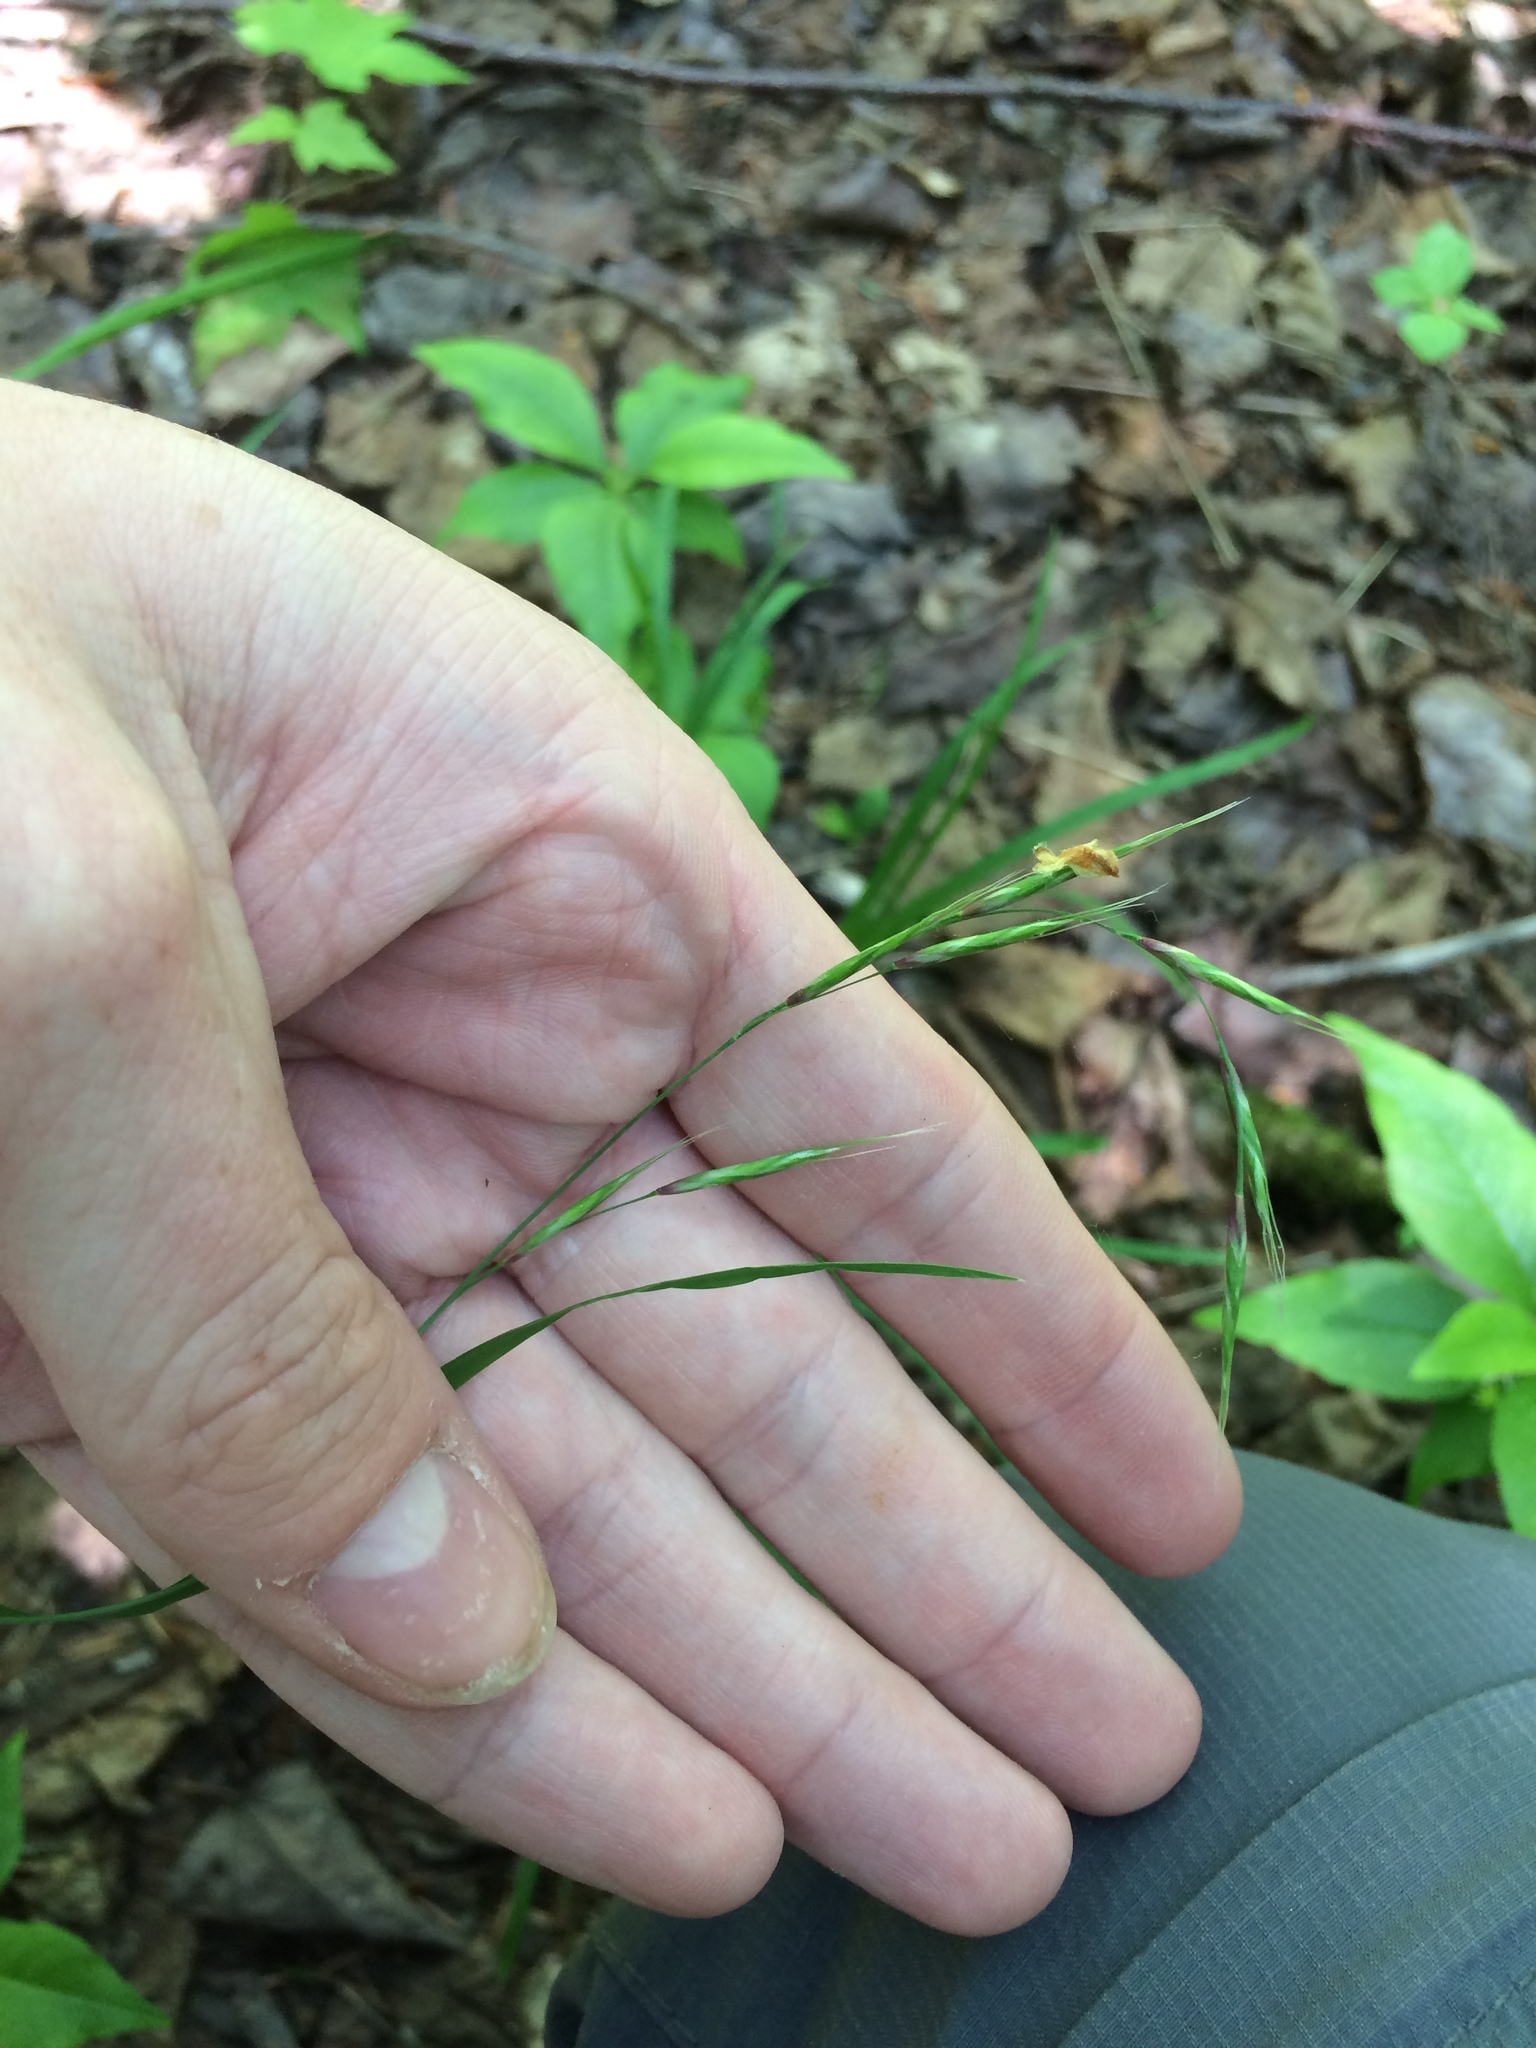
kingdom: Plantae
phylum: Tracheophyta
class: Liliopsida
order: Poales
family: Poaceae
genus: Schizachne
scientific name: Schizachne purpurascens
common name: False melic
